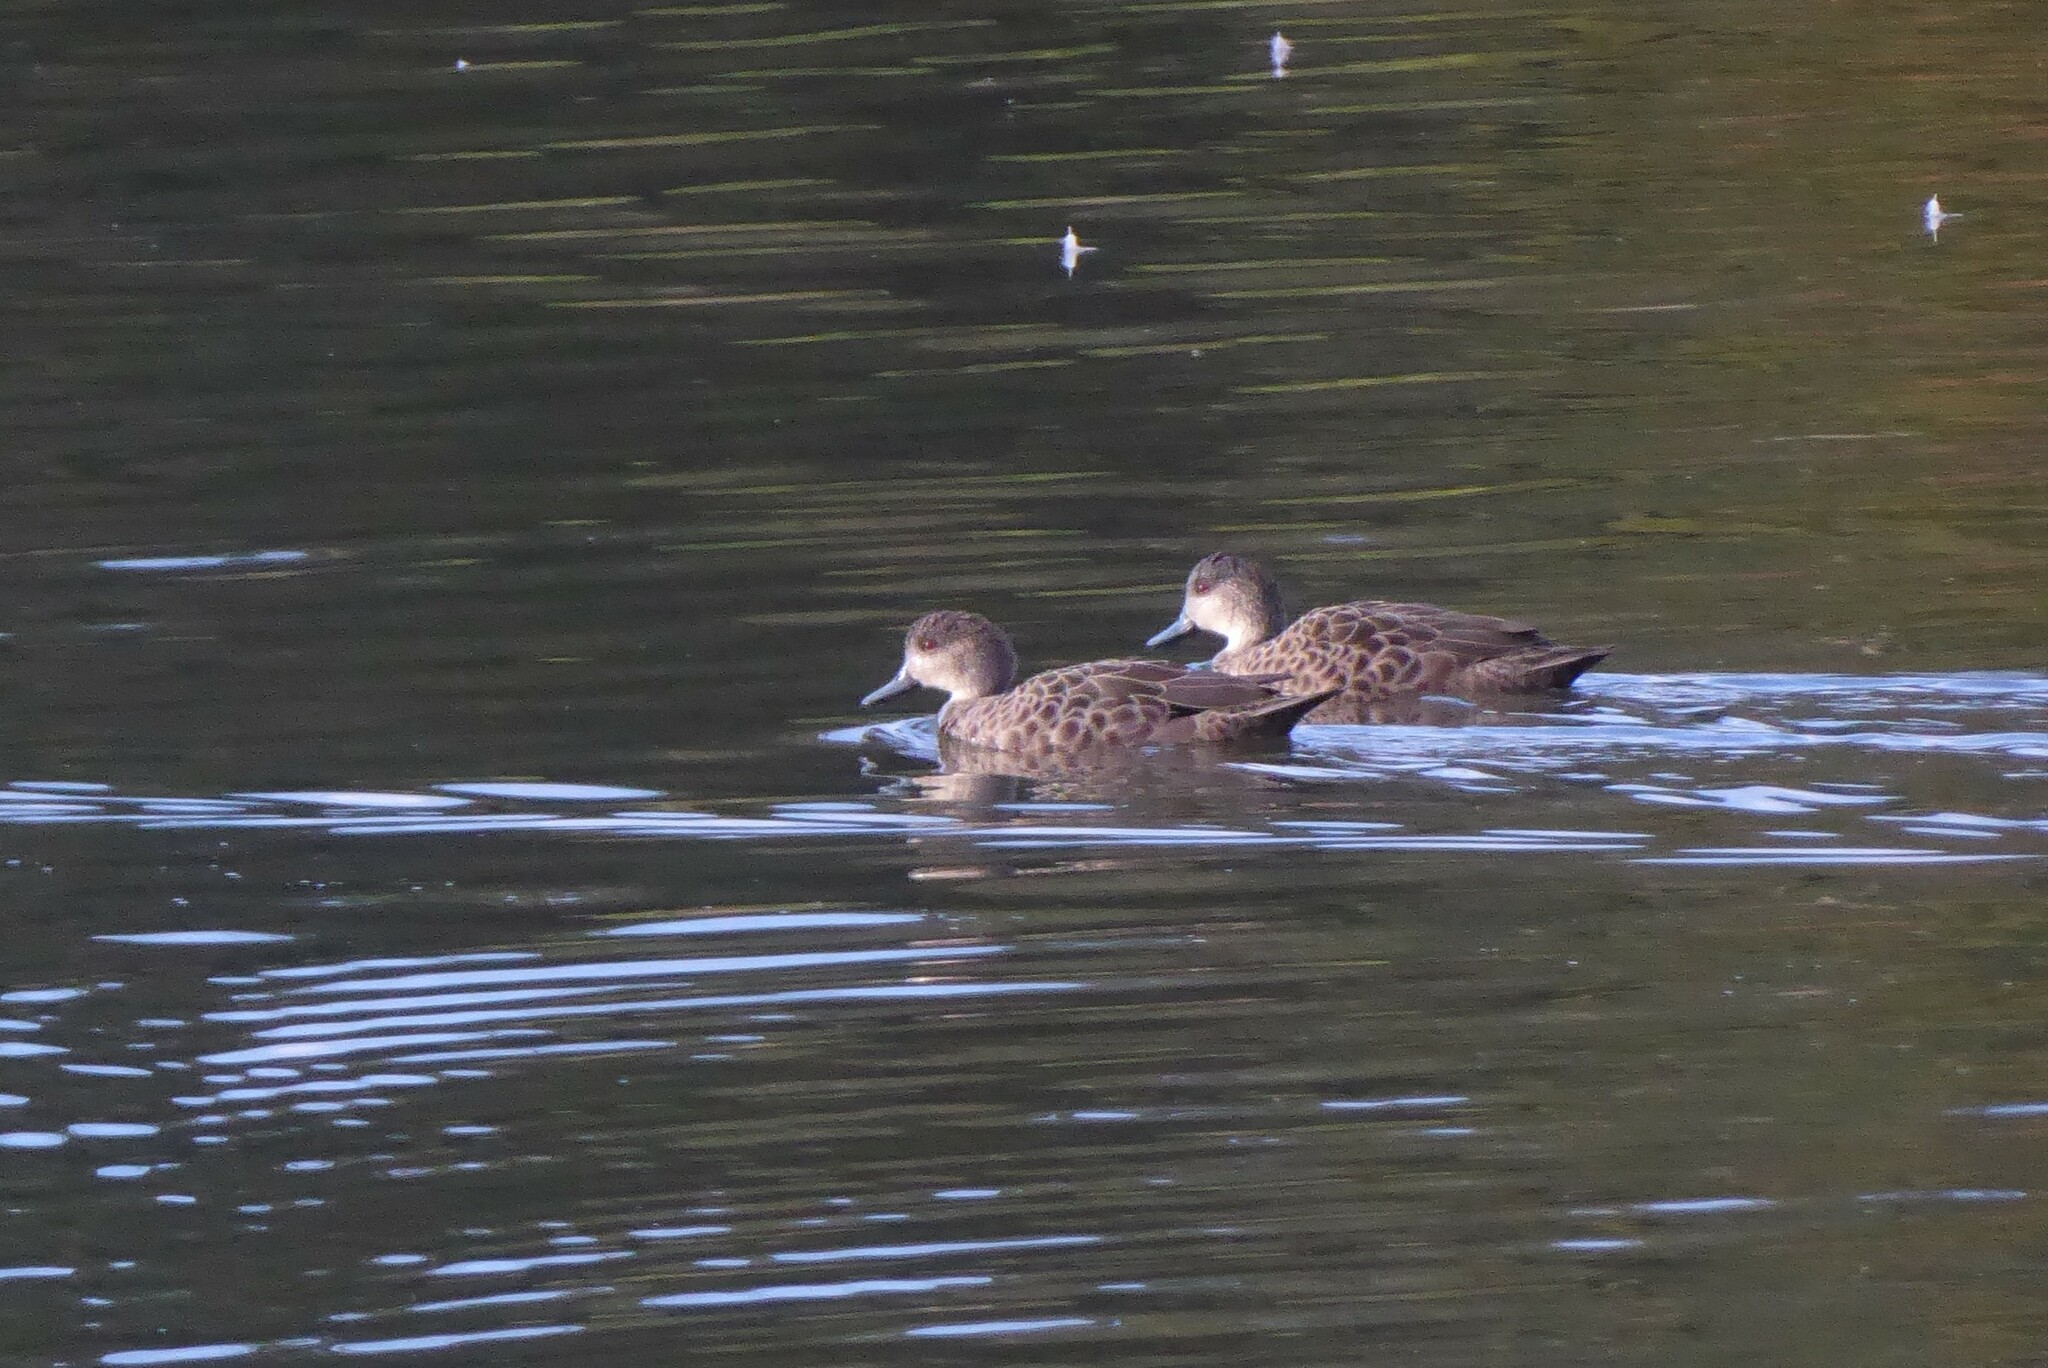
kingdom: Animalia
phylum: Chordata
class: Aves
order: Anseriformes
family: Anatidae
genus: Anas
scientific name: Anas gracilis
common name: Grey teal
